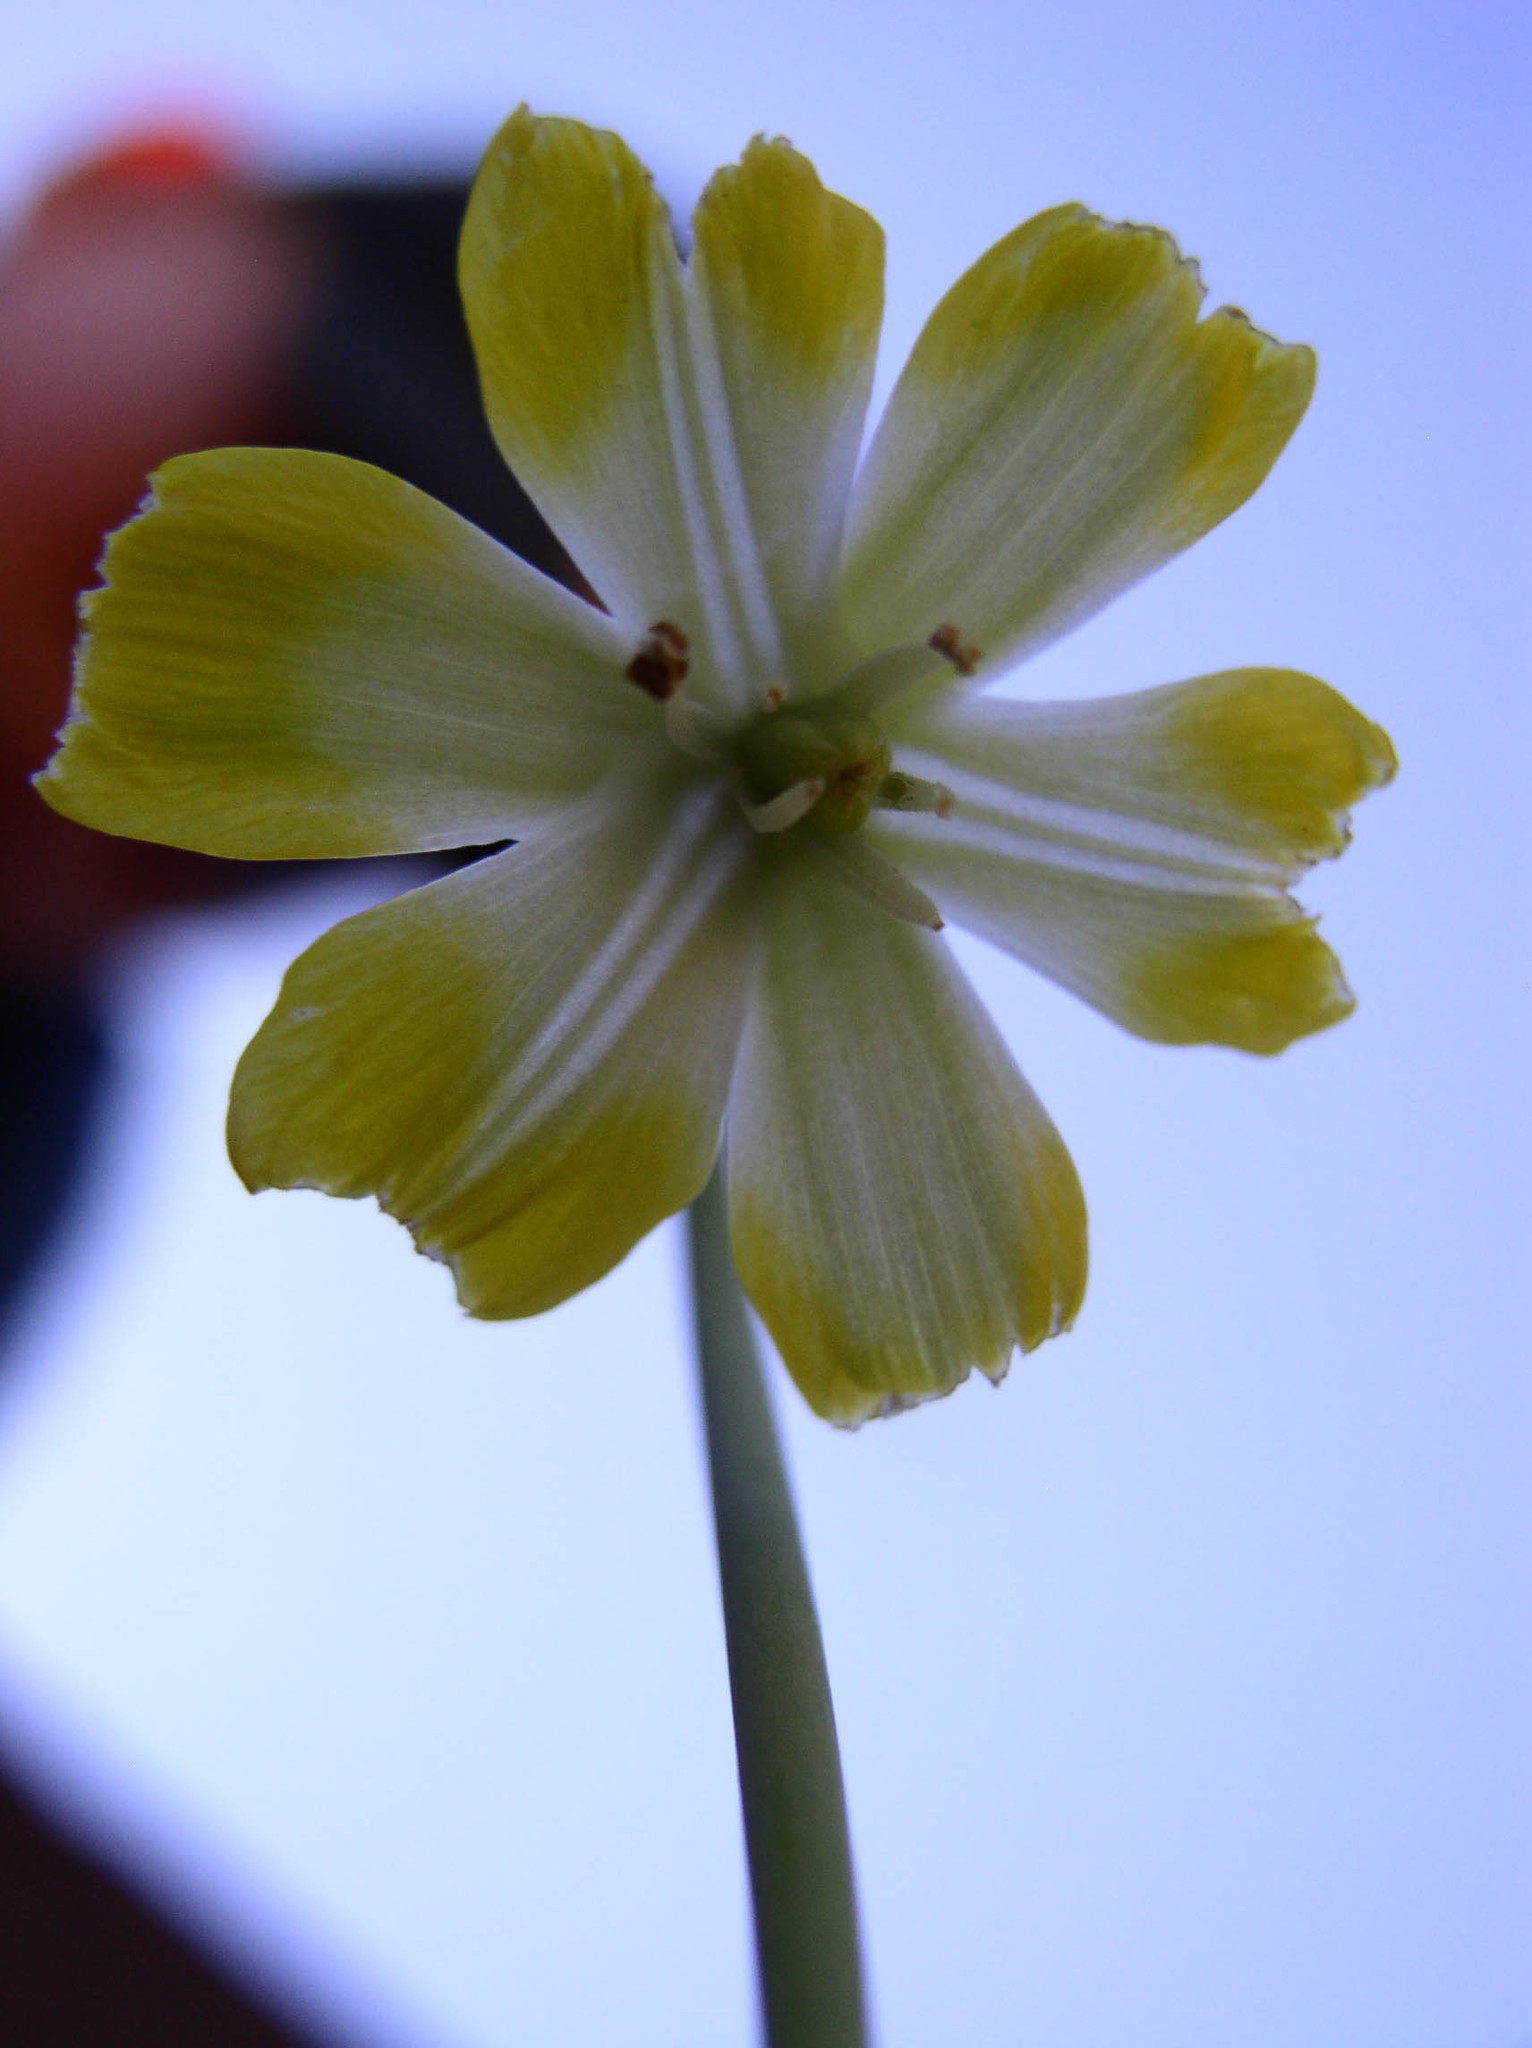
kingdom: Plantae
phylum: Tracheophyta
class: Liliopsida
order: Liliales
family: Liliaceae
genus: Erythronium
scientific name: Erythronium grandiflorum
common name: Avalanche-lily
